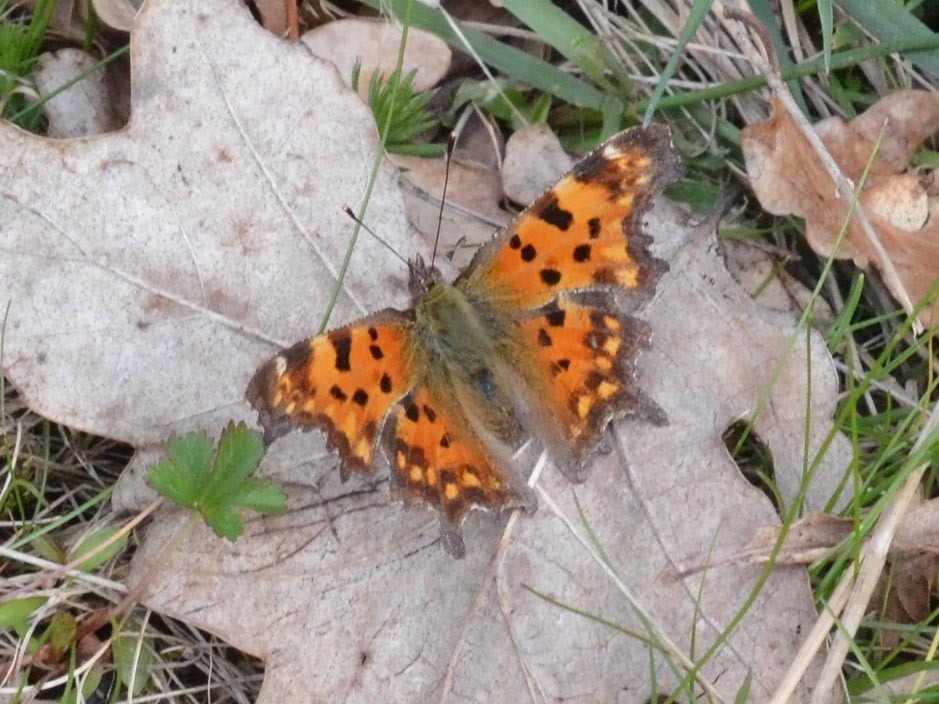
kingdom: Animalia
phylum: Arthropoda
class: Insecta
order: Lepidoptera
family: Nymphalidae
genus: Polygonia
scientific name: Polygonia c-album
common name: Comma
